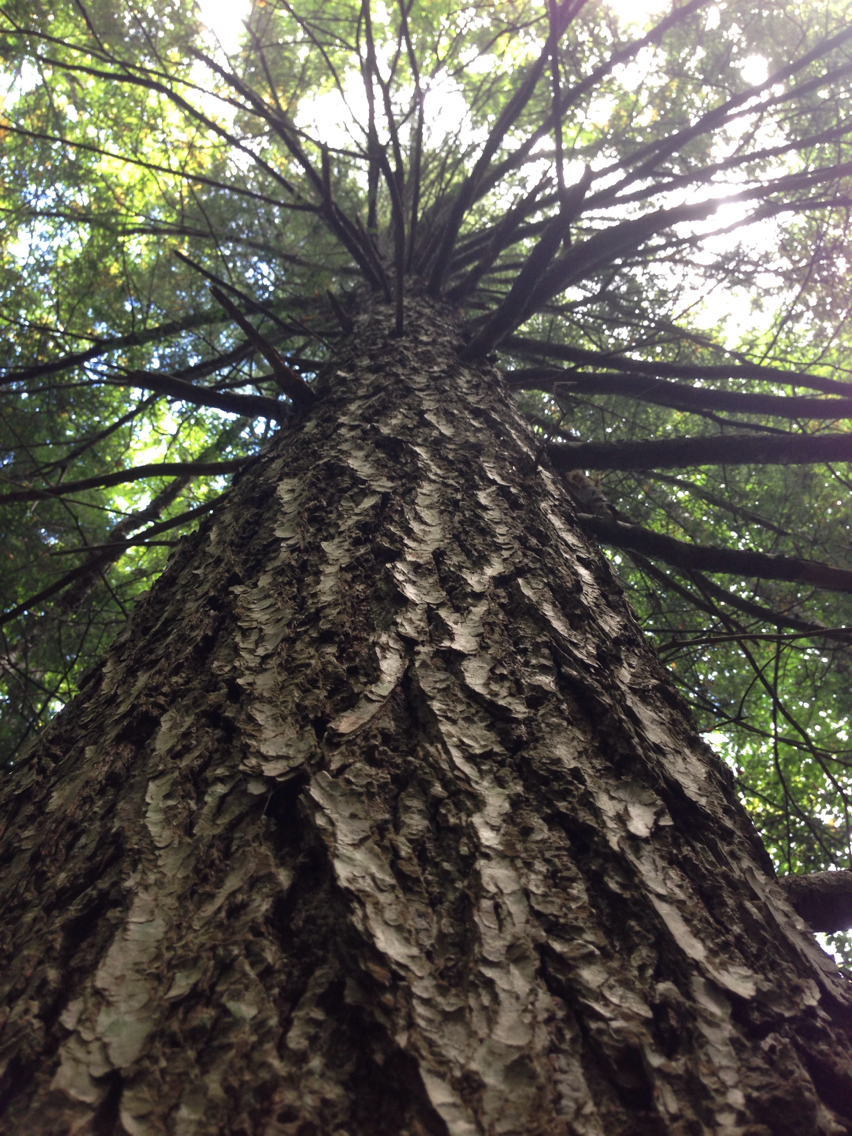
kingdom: Plantae
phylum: Tracheophyta
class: Pinopsida
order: Pinales
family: Pinaceae
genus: Tsuga
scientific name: Tsuga canadensis
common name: Eastern hemlock
